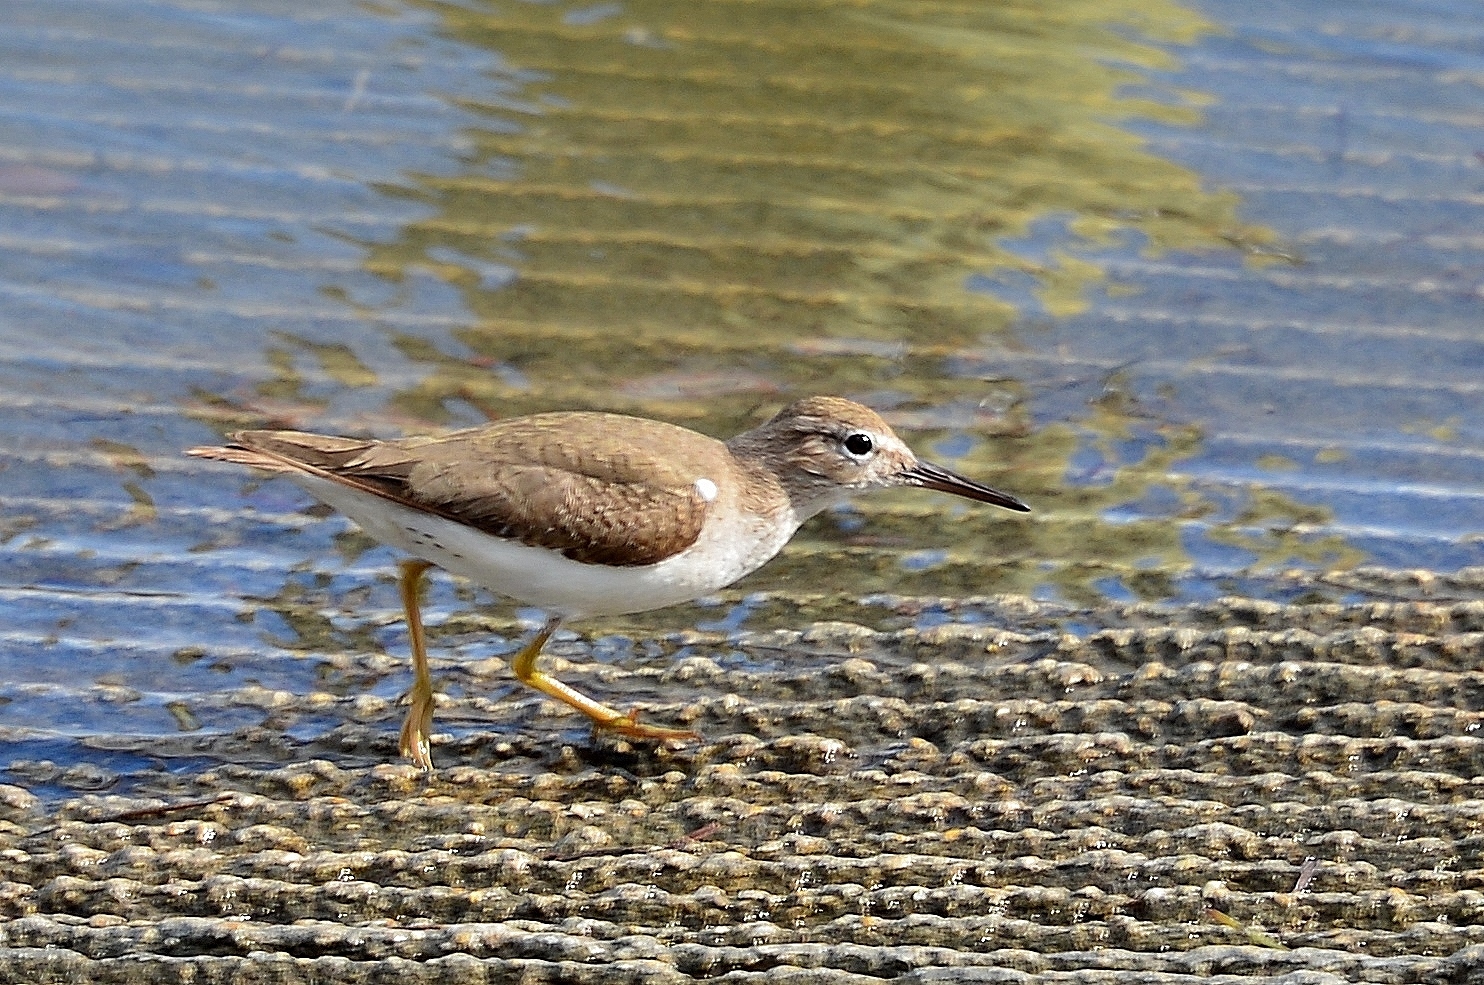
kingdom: Animalia
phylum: Chordata
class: Aves
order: Charadriiformes
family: Scolopacidae
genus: Actitis
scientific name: Actitis macularius
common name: Spotted sandpiper
